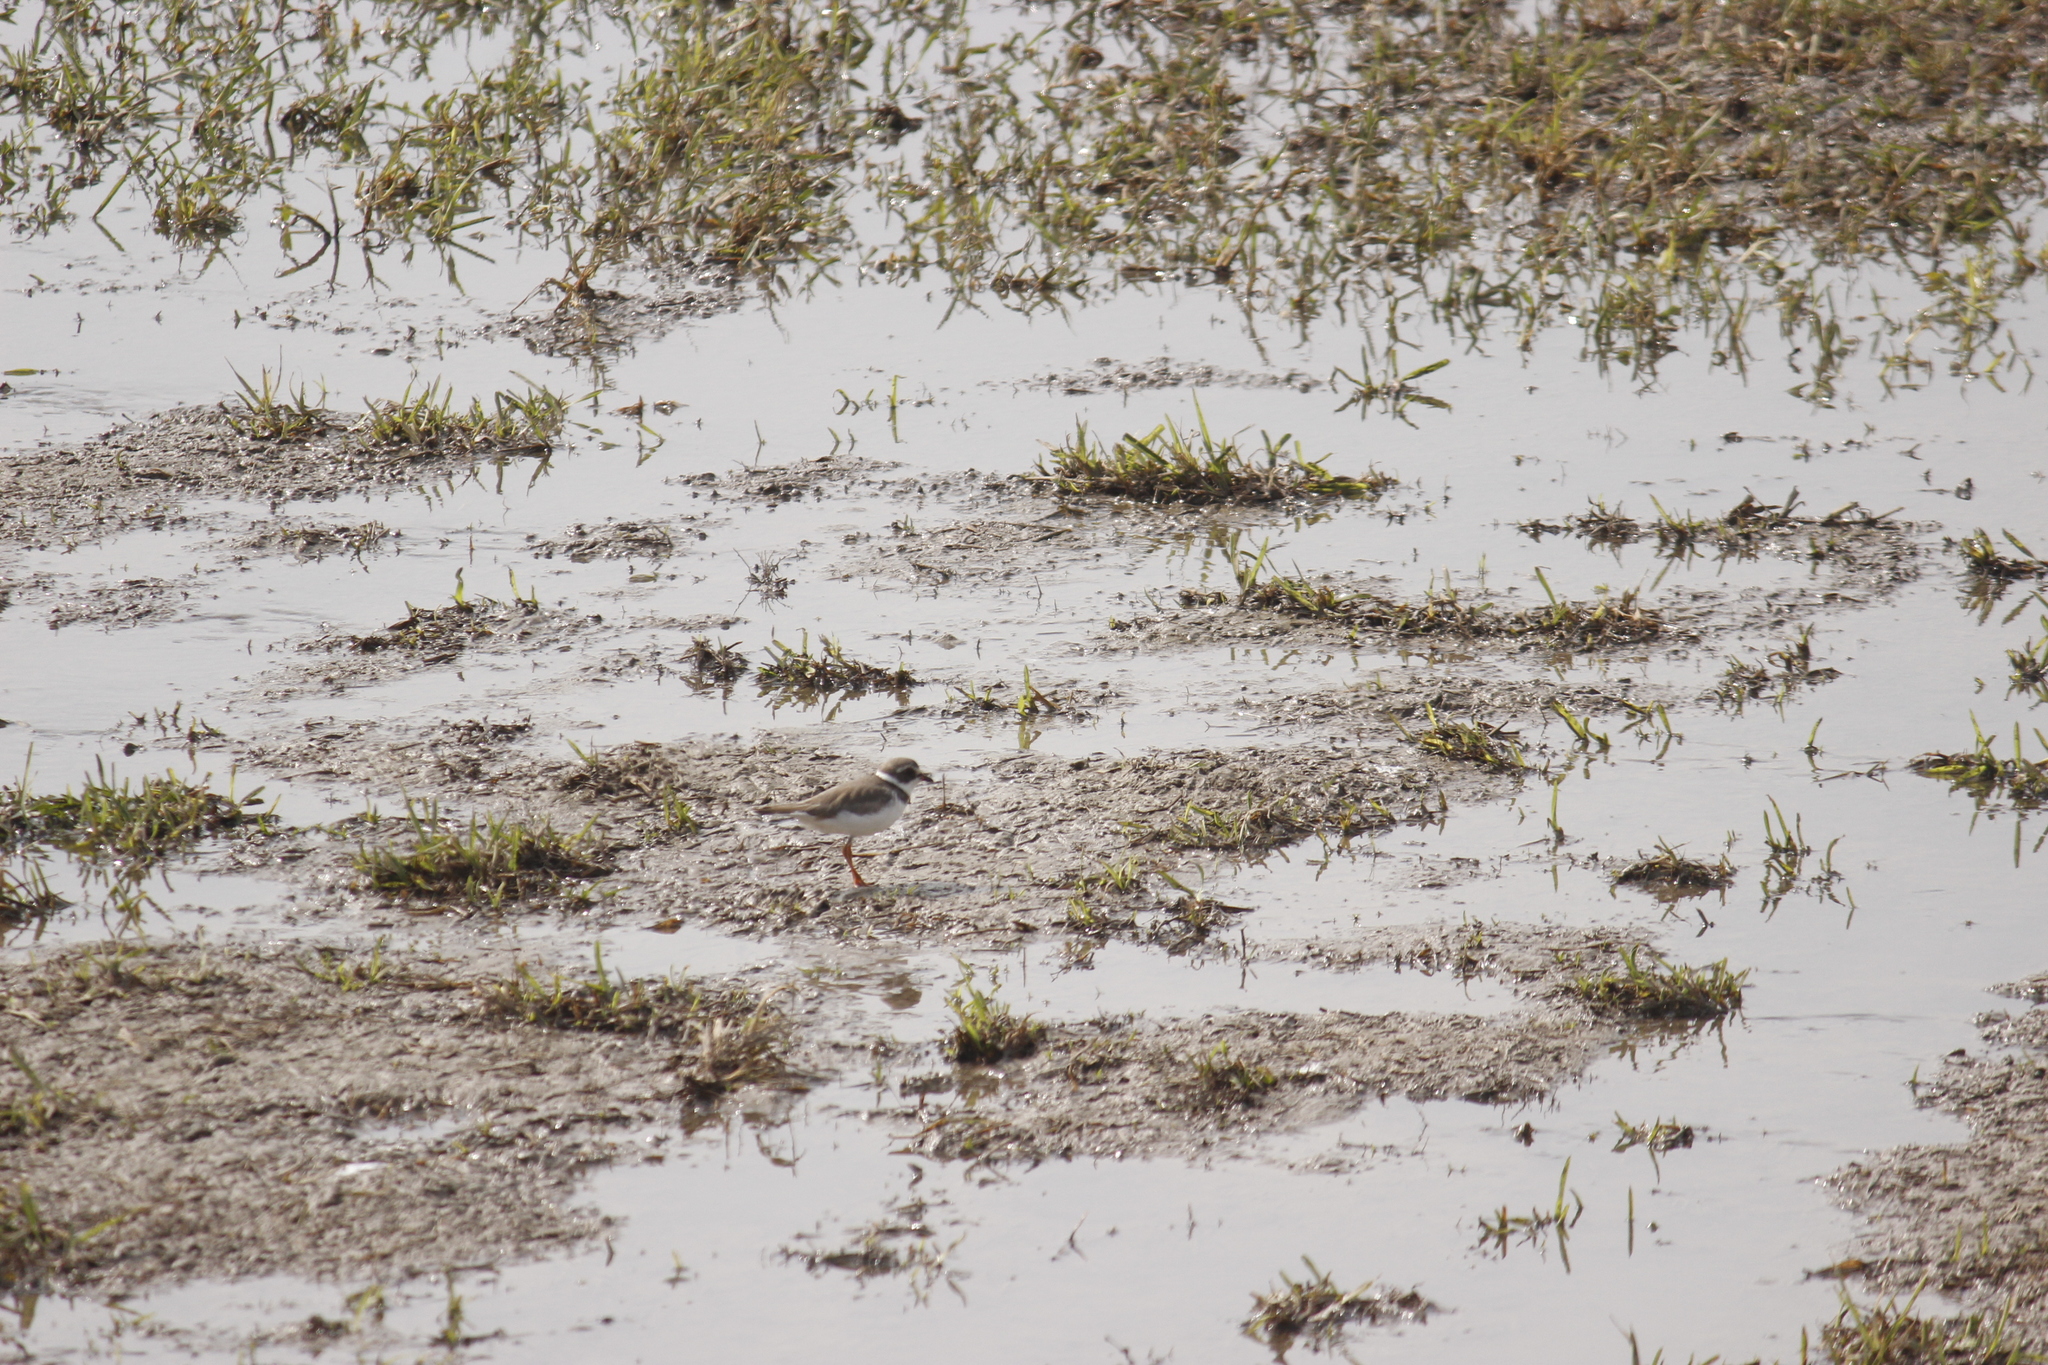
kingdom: Animalia
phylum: Chordata
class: Aves
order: Charadriiformes
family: Charadriidae
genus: Charadrius
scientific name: Charadrius semipalmatus
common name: Semipalmated plover
